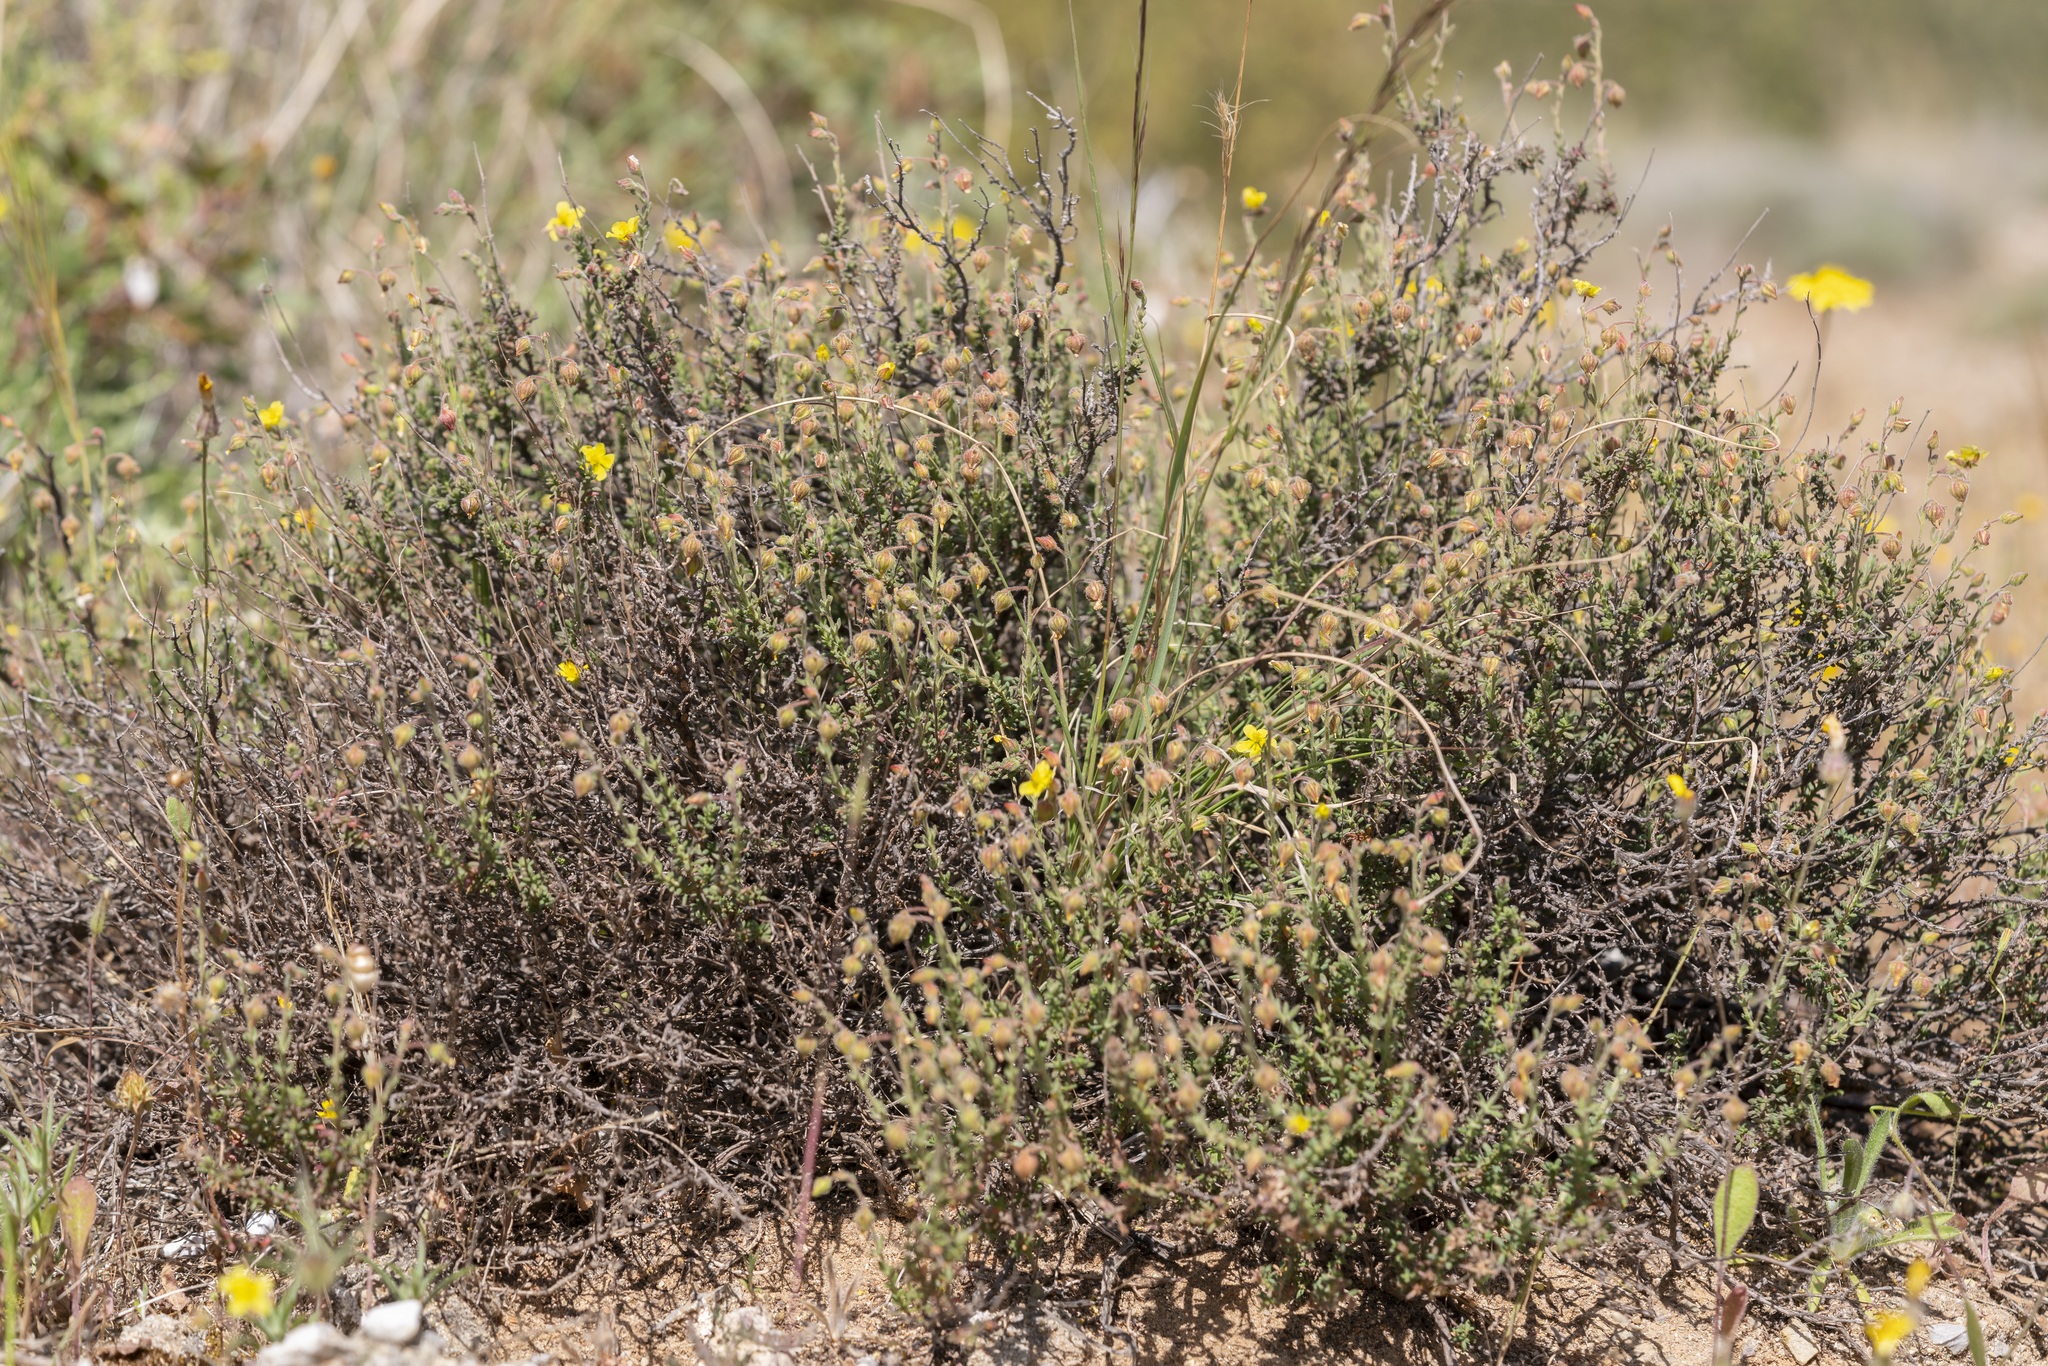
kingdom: Plantae
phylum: Tracheophyta
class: Magnoliopsida
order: Malvales
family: Cistaceae
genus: Fumana
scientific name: Fumana thymifolia
